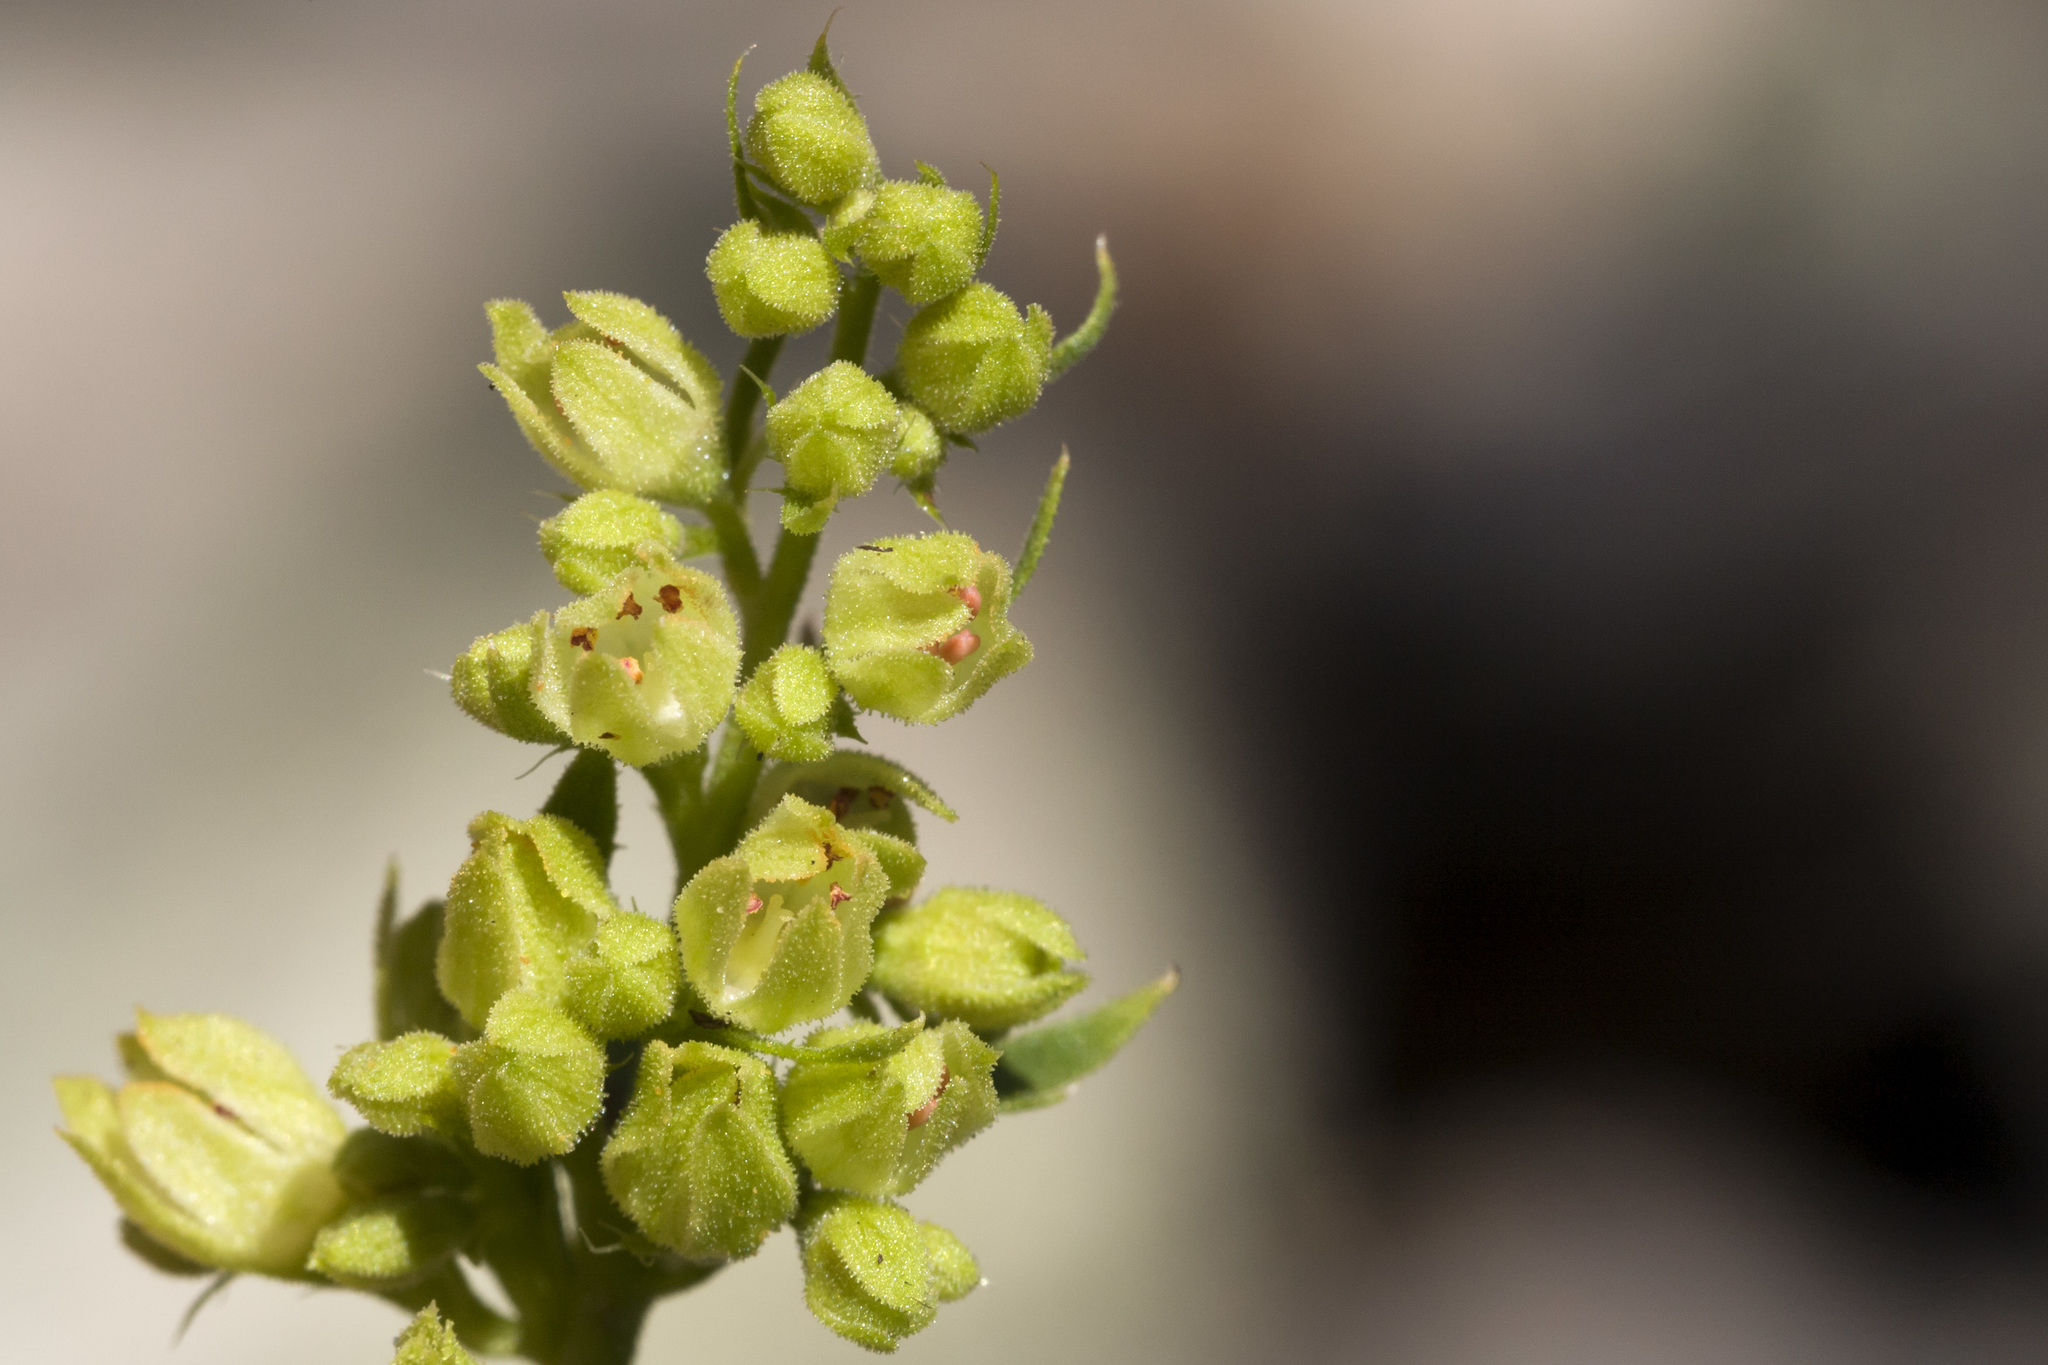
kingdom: Plantae
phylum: Tracheophyta
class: Magnoliopsida
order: Saxifragales
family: Saxifragaceae
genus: Heuchera
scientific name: Heuchera woodsiaphila
